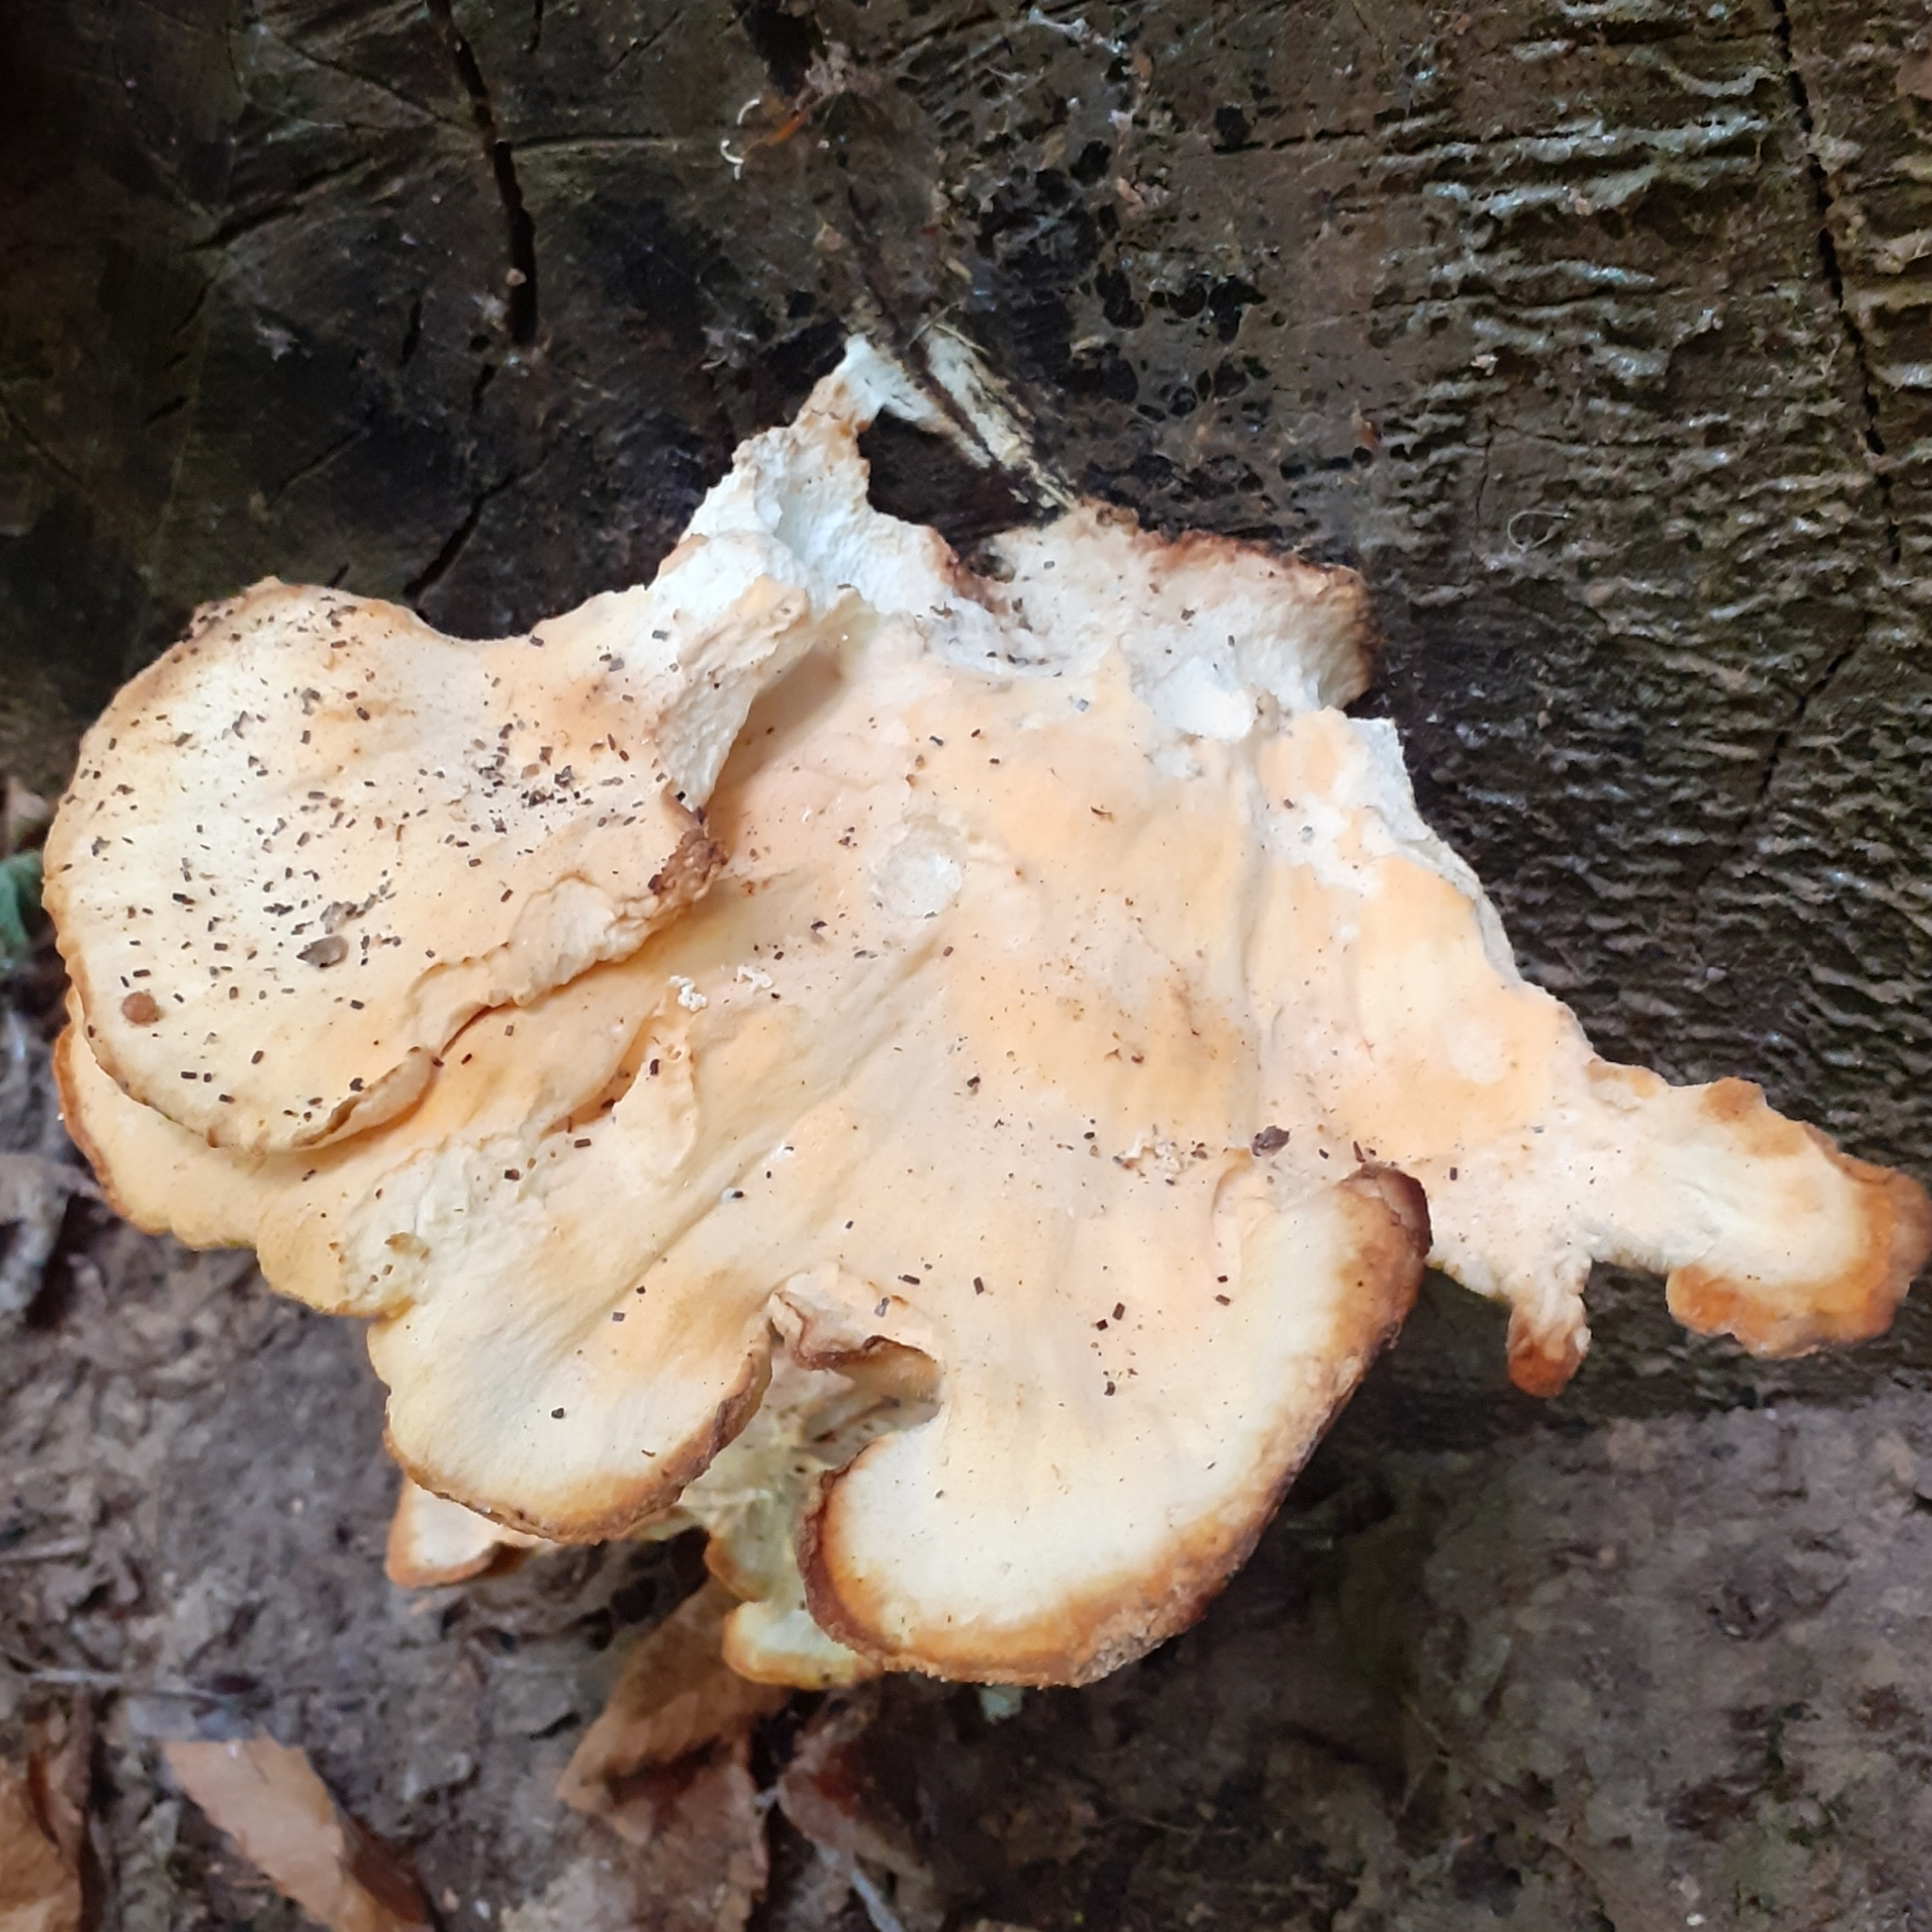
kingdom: Fungi
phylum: Basidiomycota
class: Agaricomycetes
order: Polyporales
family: Laetiporaceae
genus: Laetiporus
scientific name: Laetiporus sulphureus
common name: Chicken of the woods
